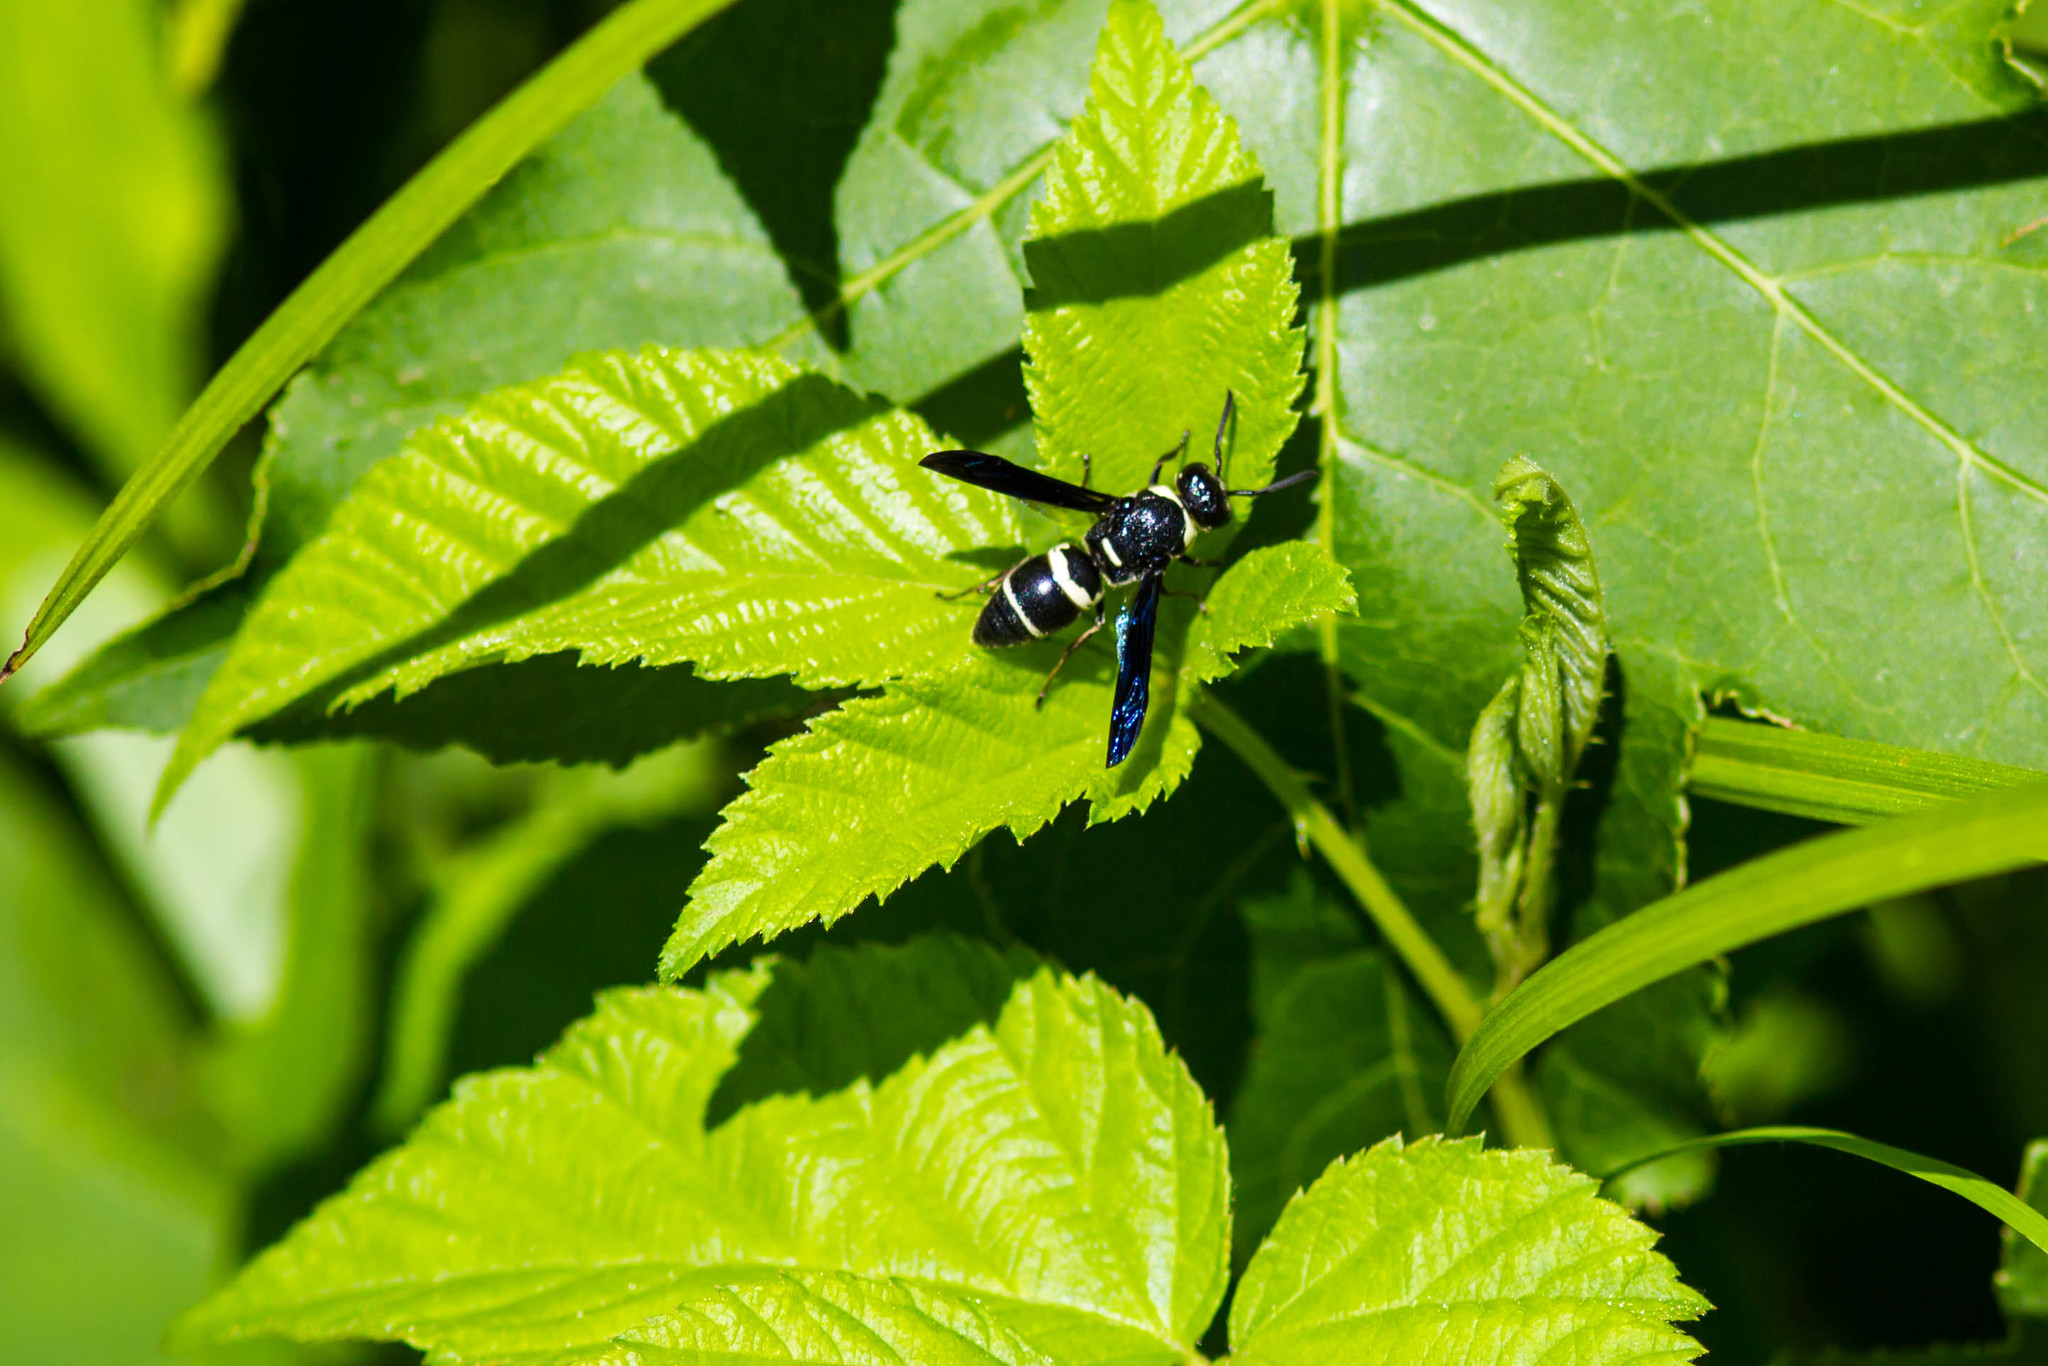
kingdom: Animalia
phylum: Arthropoda
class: Insecta
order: Hymenoptera
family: Eumenidae
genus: Euodynerus
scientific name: Euodynerus megaera
